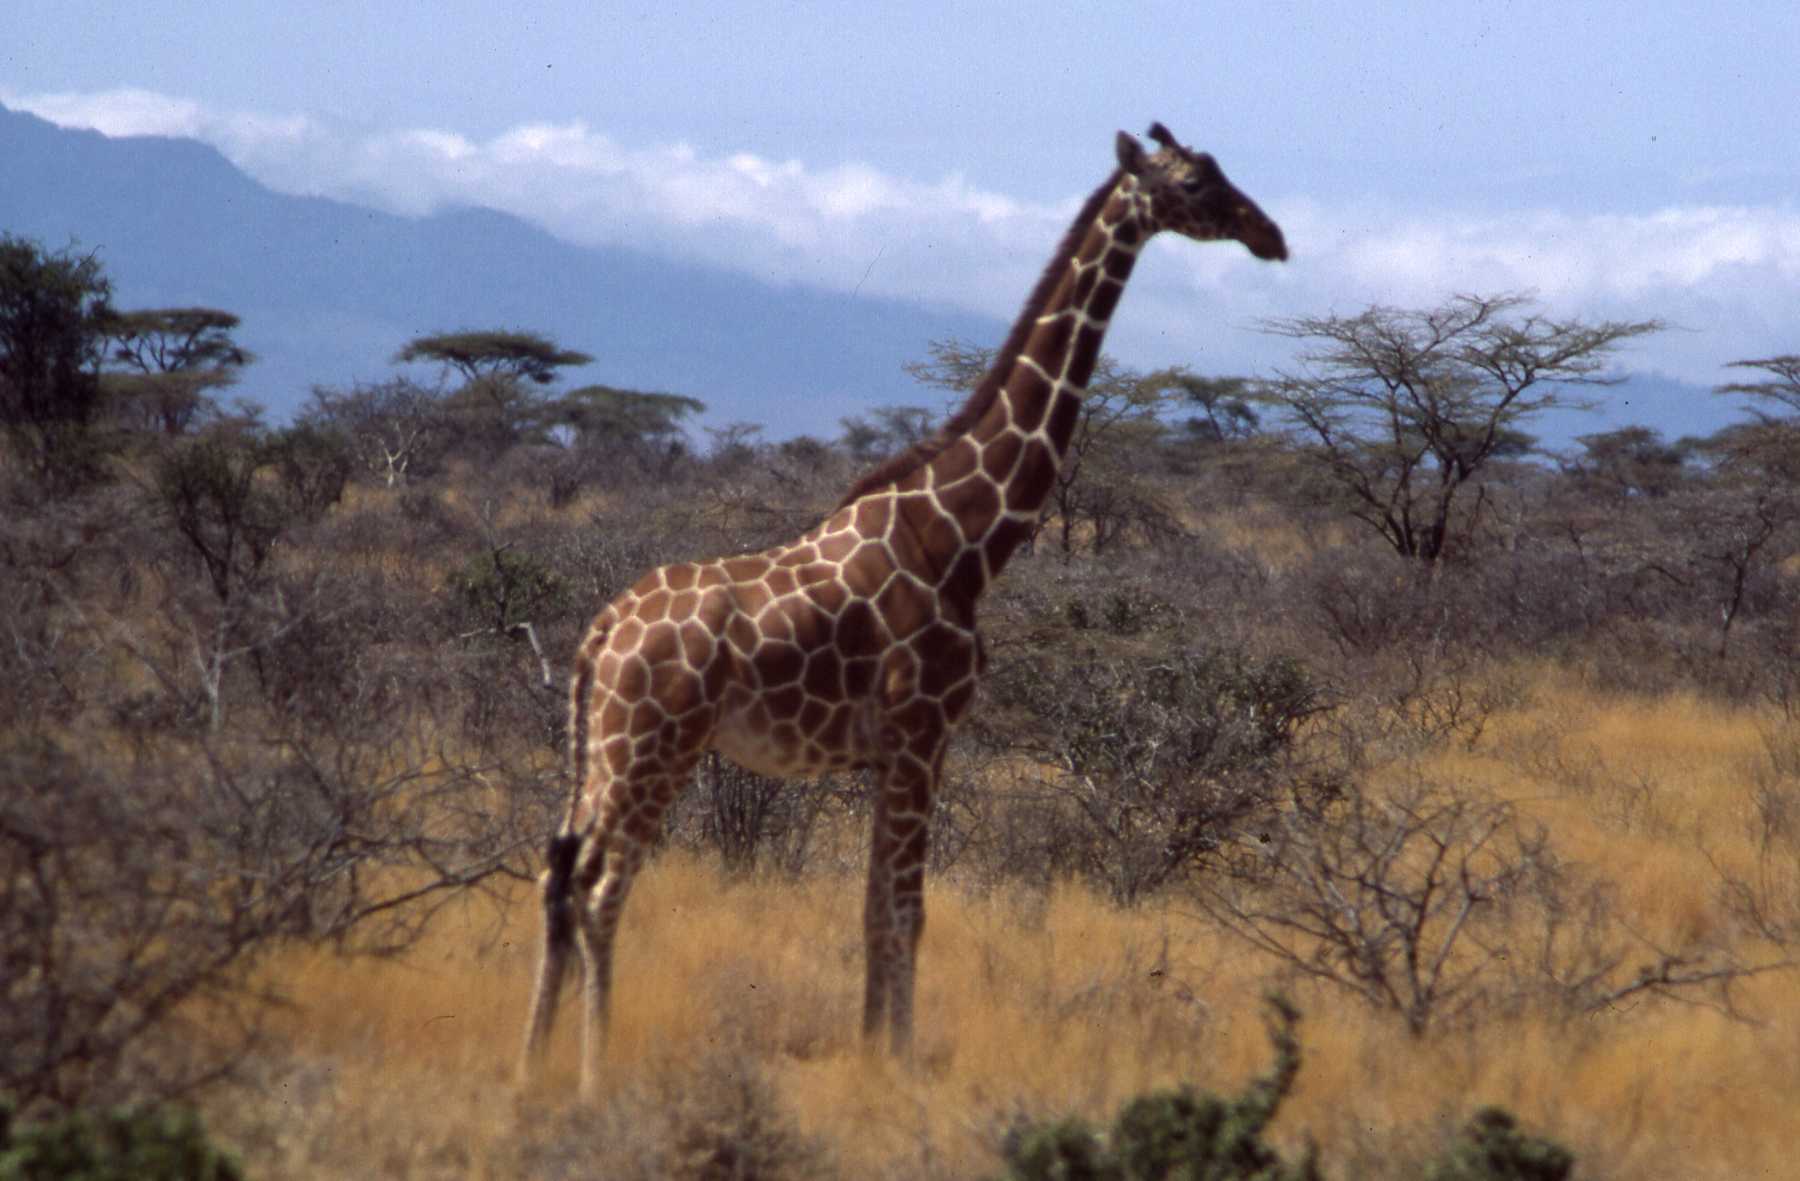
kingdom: Animalia
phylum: Chordata
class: Mammalia
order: Artiodactyla
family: Giraffidae
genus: Giraffa
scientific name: Giraffa reticulata
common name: Reticulated giraffe
